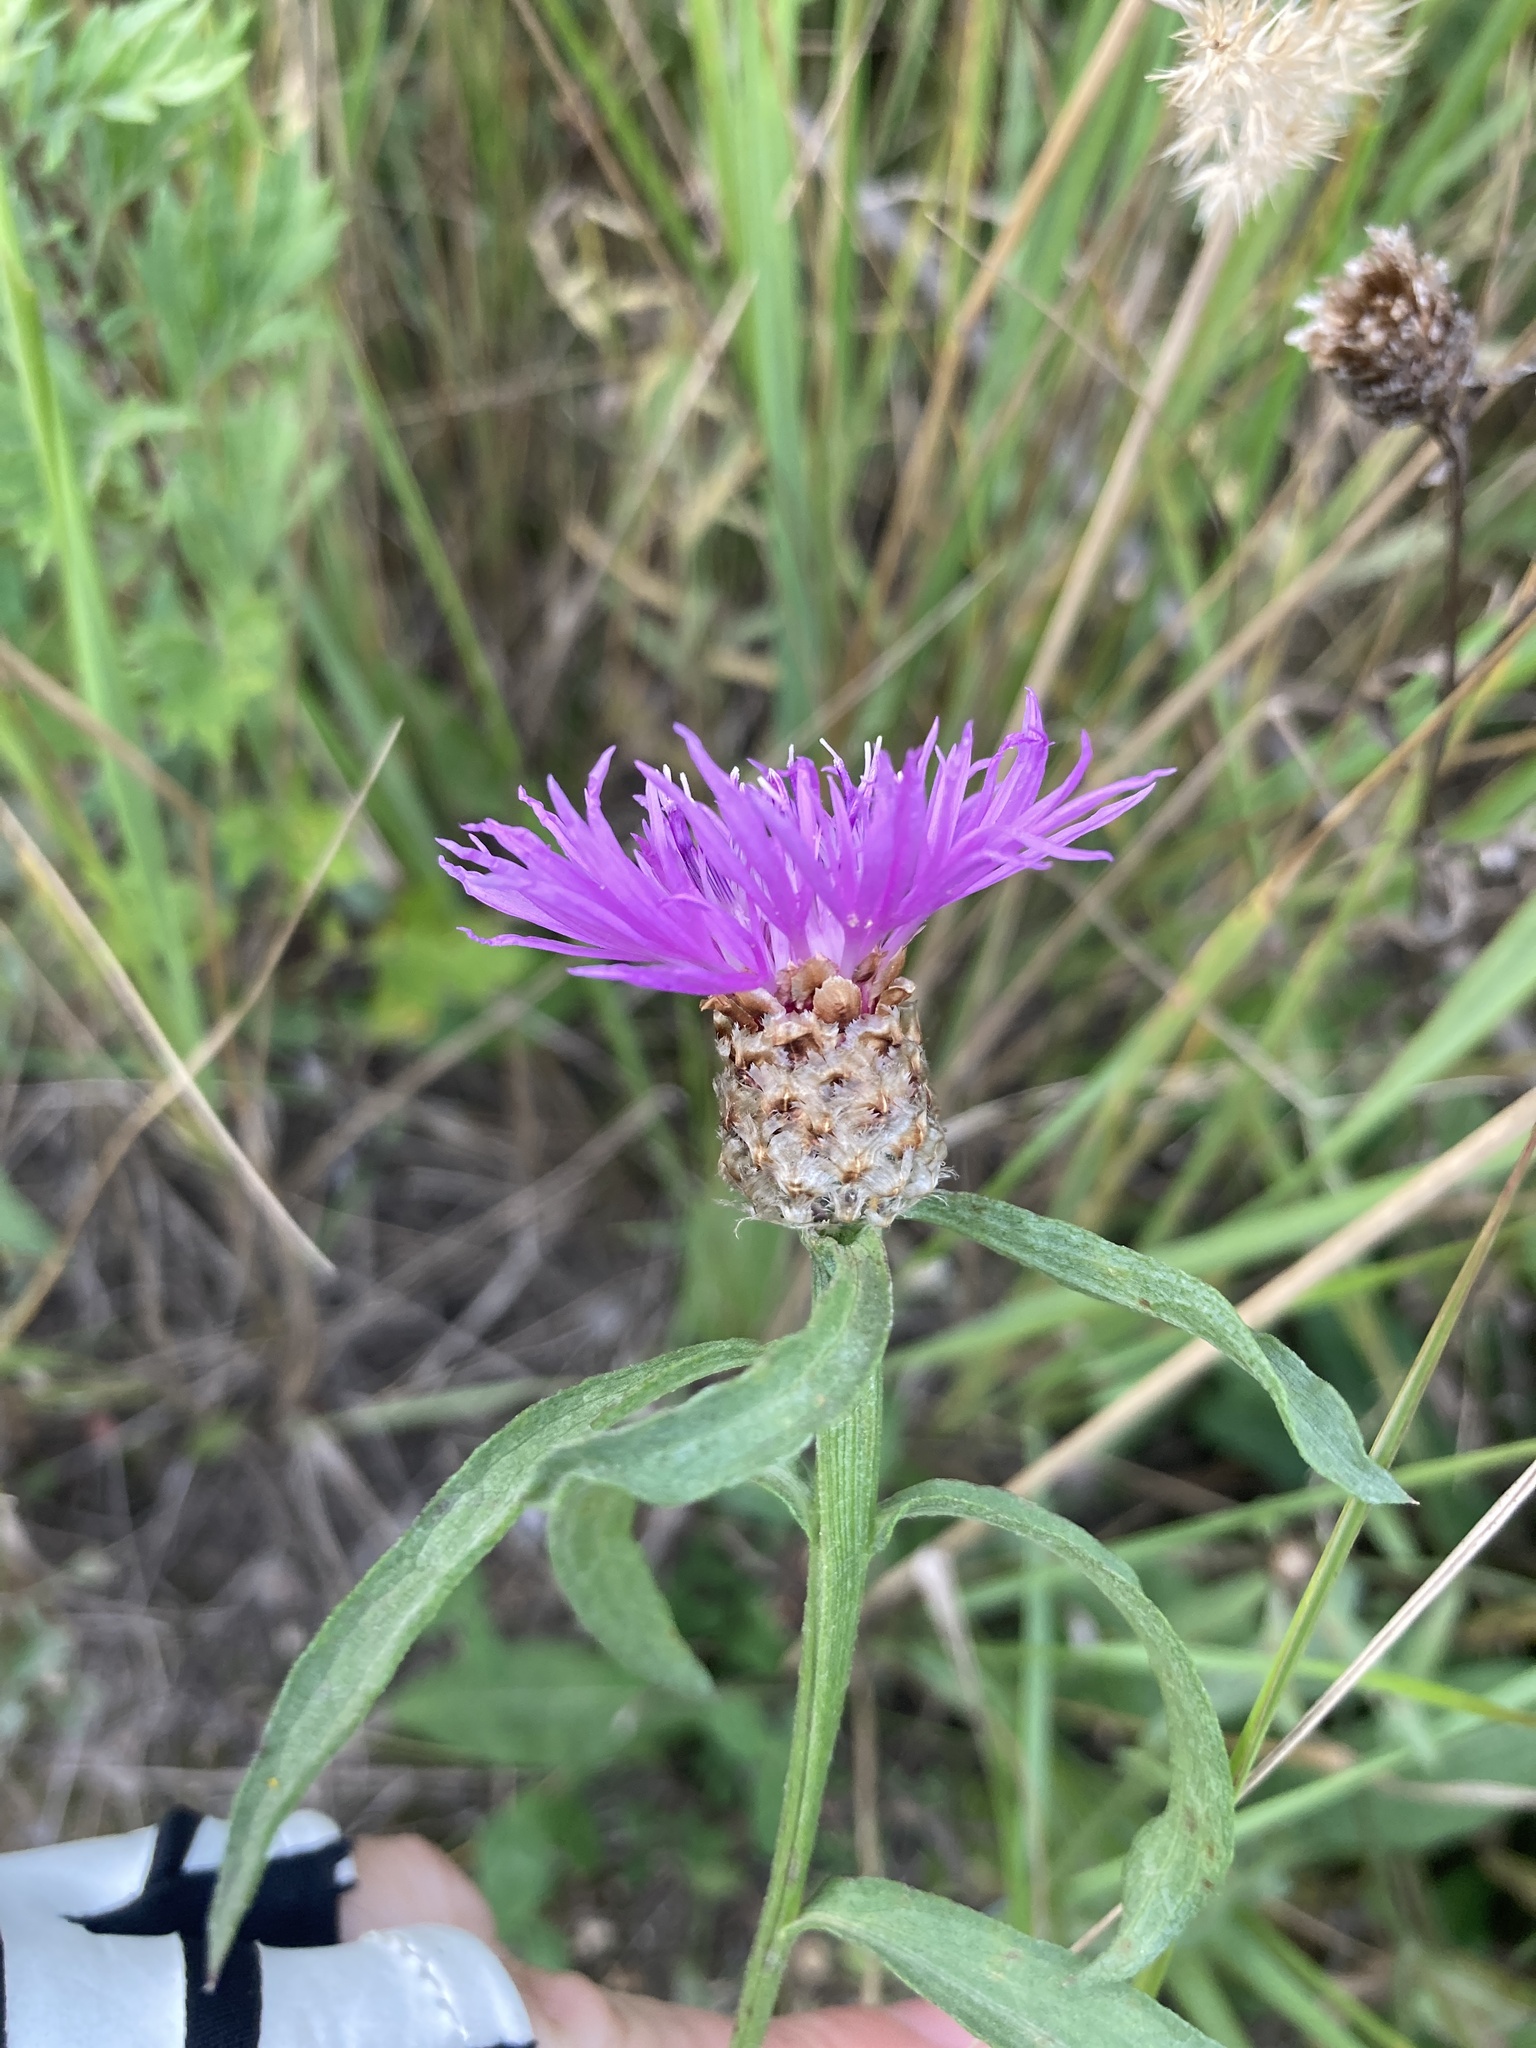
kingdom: Plantae
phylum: Tracheophyta
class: Magnoliopsida
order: Asterales
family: Asteraceae
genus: Centaurea
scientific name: Centaurea jacea
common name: Brown knapweed
